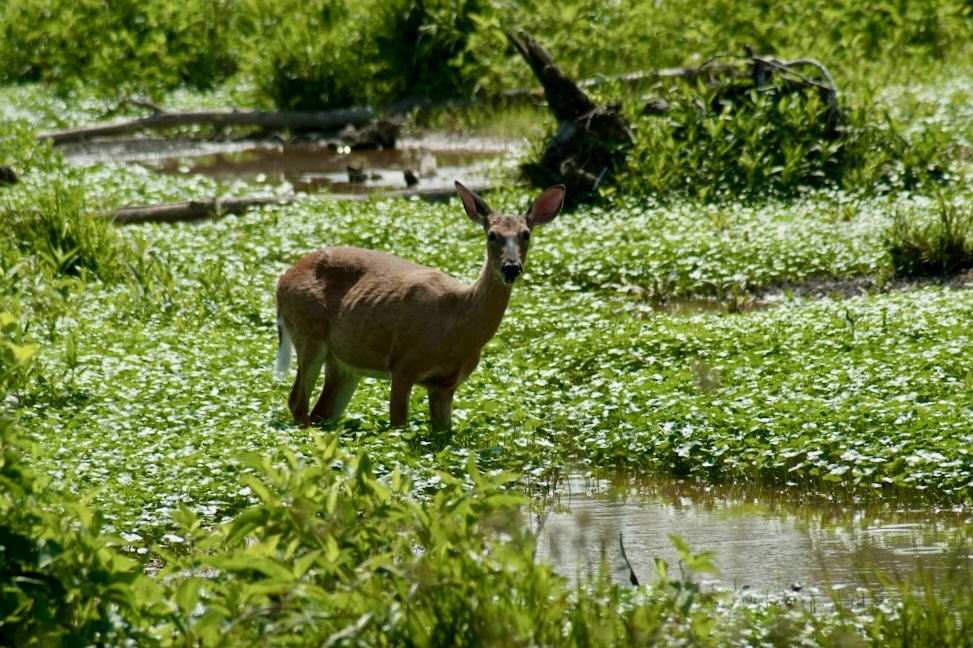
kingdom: Animalia
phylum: Chordata
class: Mammalia
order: Artiodactyla
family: Cervidae
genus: Odocoileus
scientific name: Odocoileus virginianus
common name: White-tailed deer
